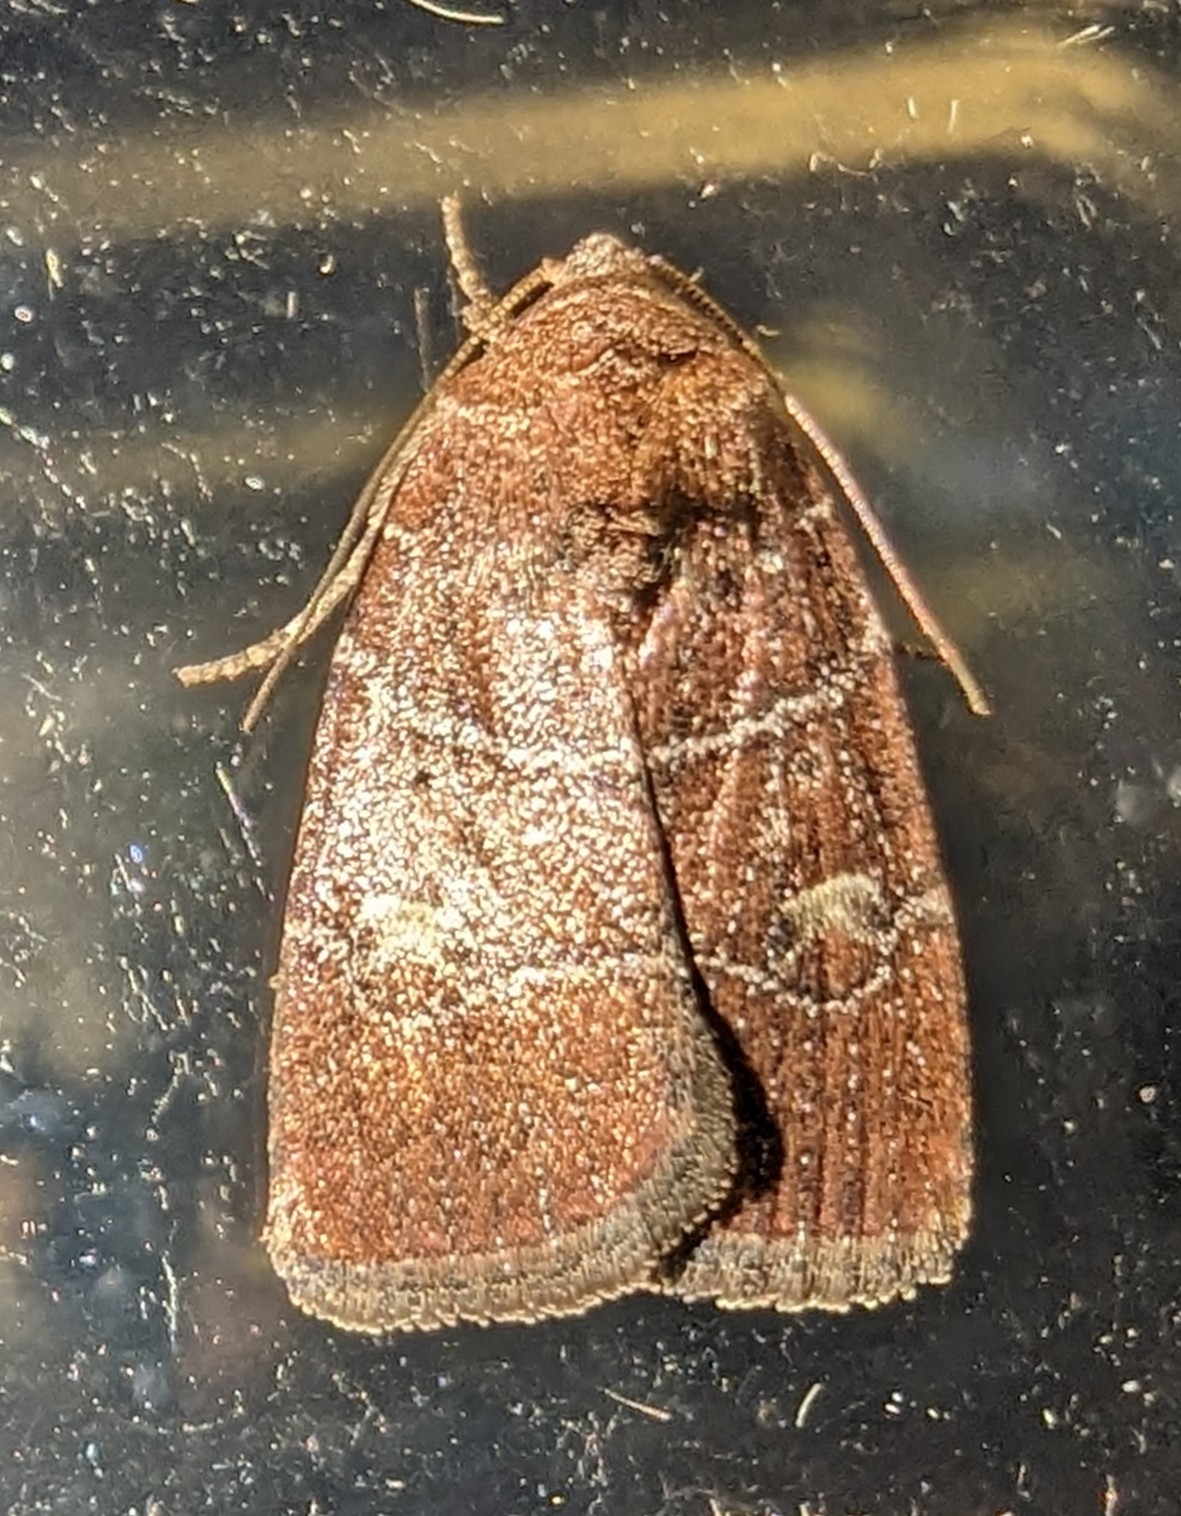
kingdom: Animalia
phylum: Arthropoda
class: Insecta
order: Lepidoptera
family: Noctuidae
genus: Elaphria
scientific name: Elaphria grata
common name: Grateful midget moth
